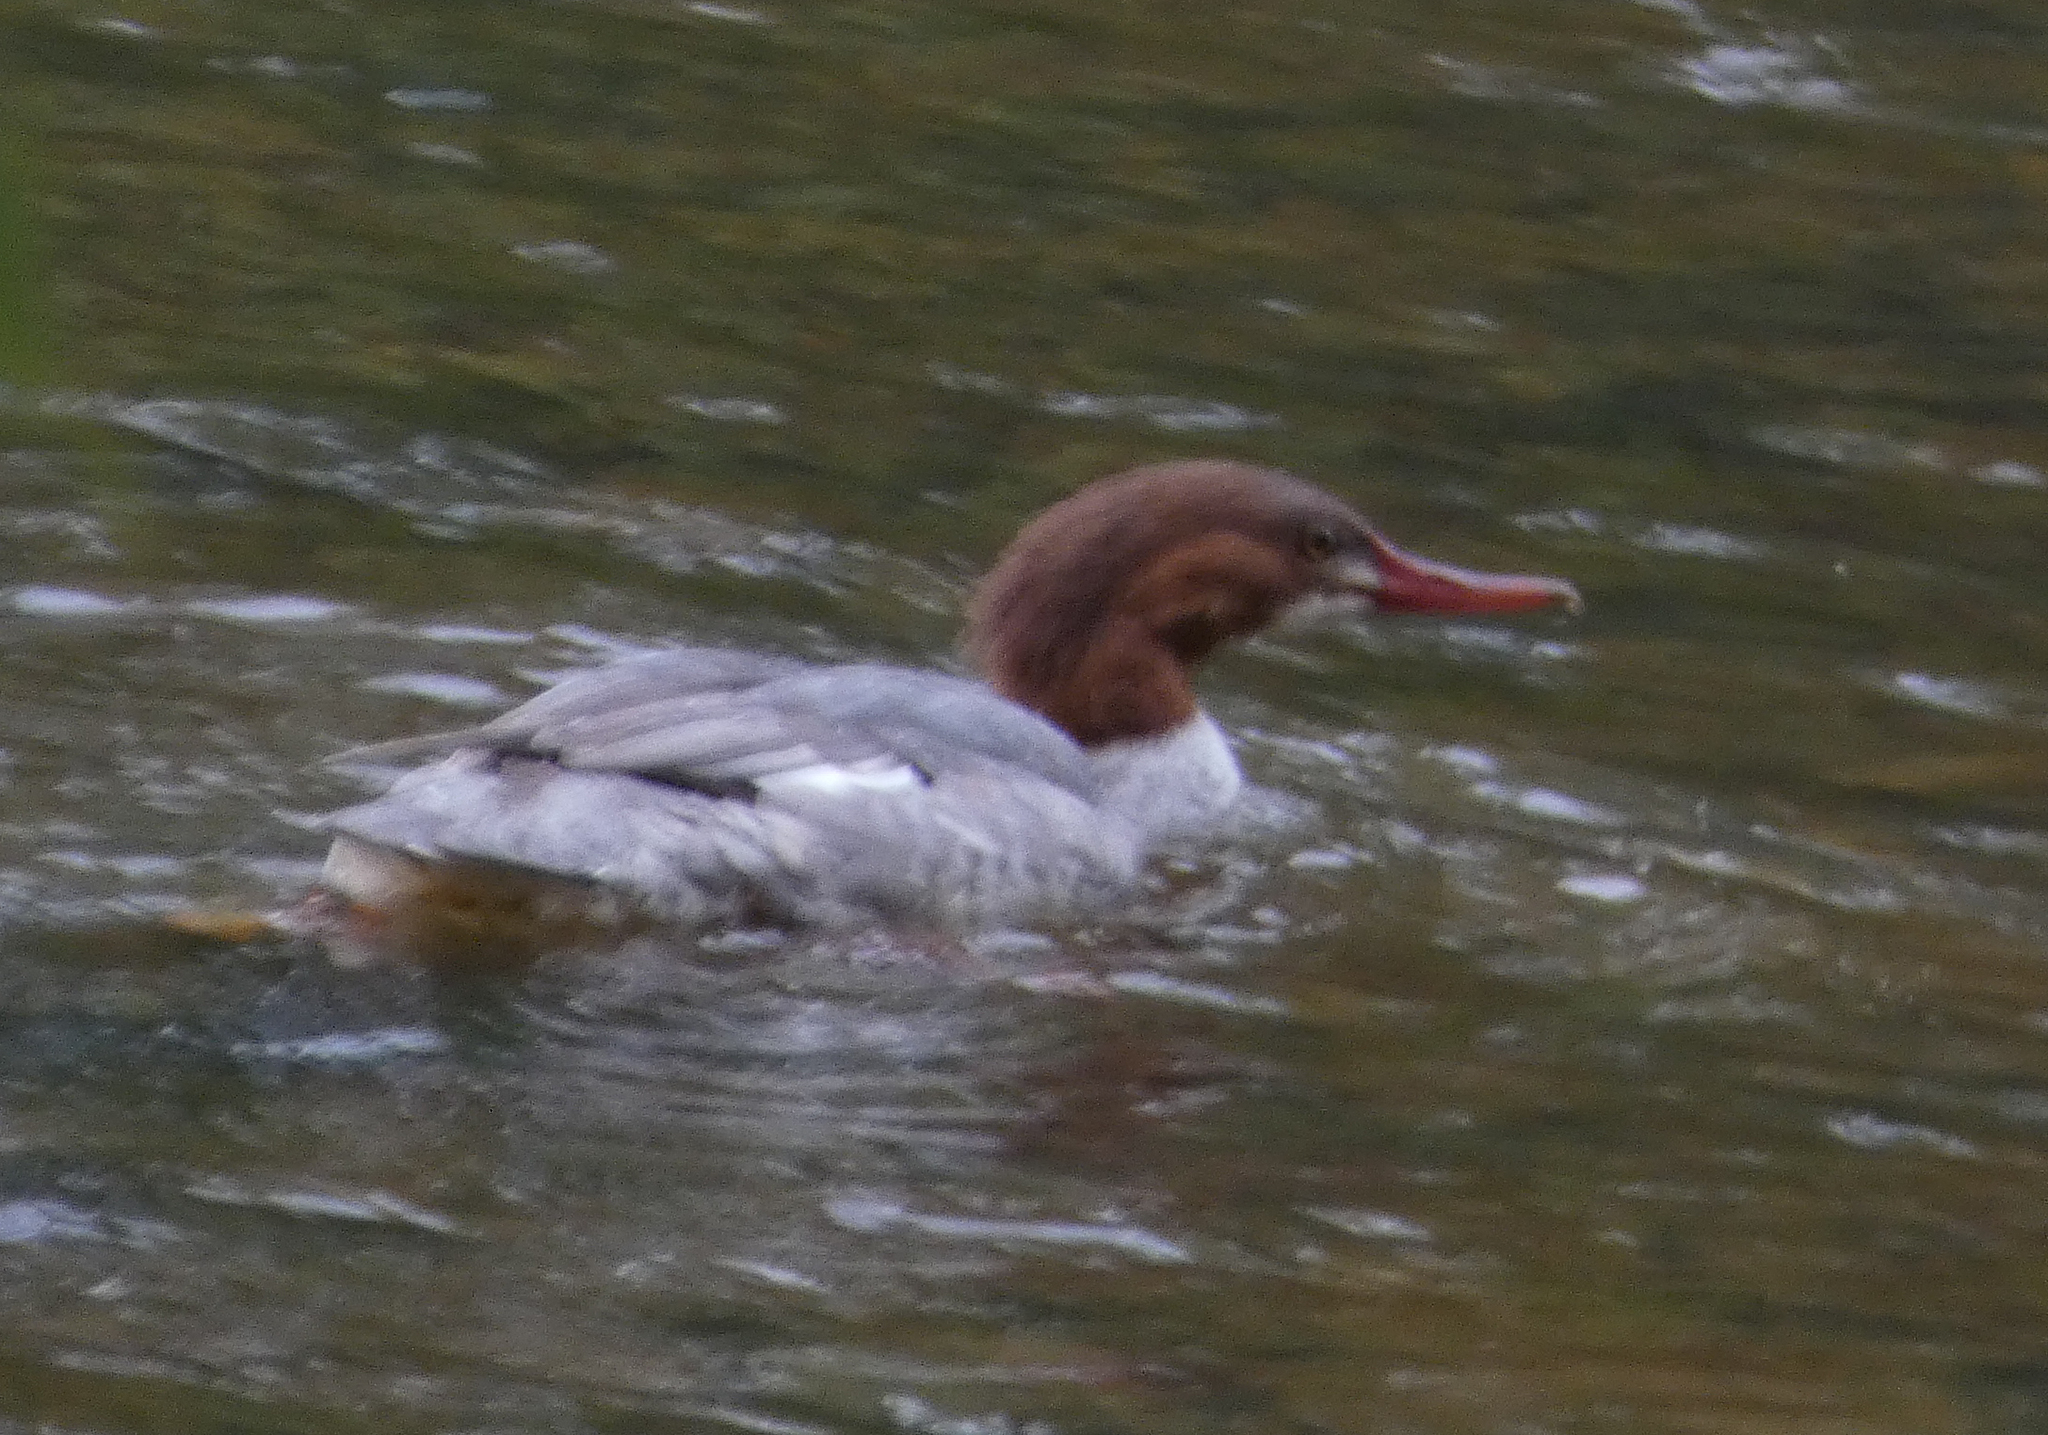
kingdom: Animalia
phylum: Chordata
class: Aves
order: Anseriformes
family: Anatidae
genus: Mergus
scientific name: Mergus merganser
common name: Common merganser
